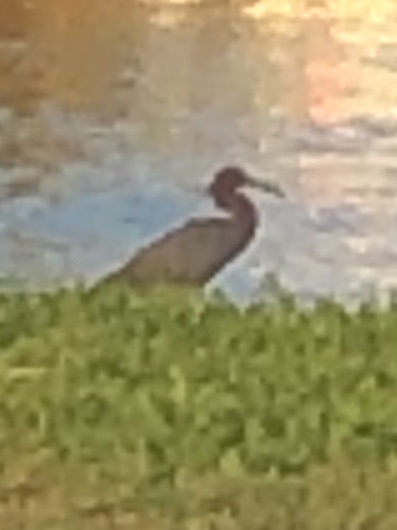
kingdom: Animalia
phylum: Chordata
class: Aves
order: Pelecaniformes
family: Threskiornithidae
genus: Plegadis
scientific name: Plegadis falcinellus
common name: Glossy ibis
